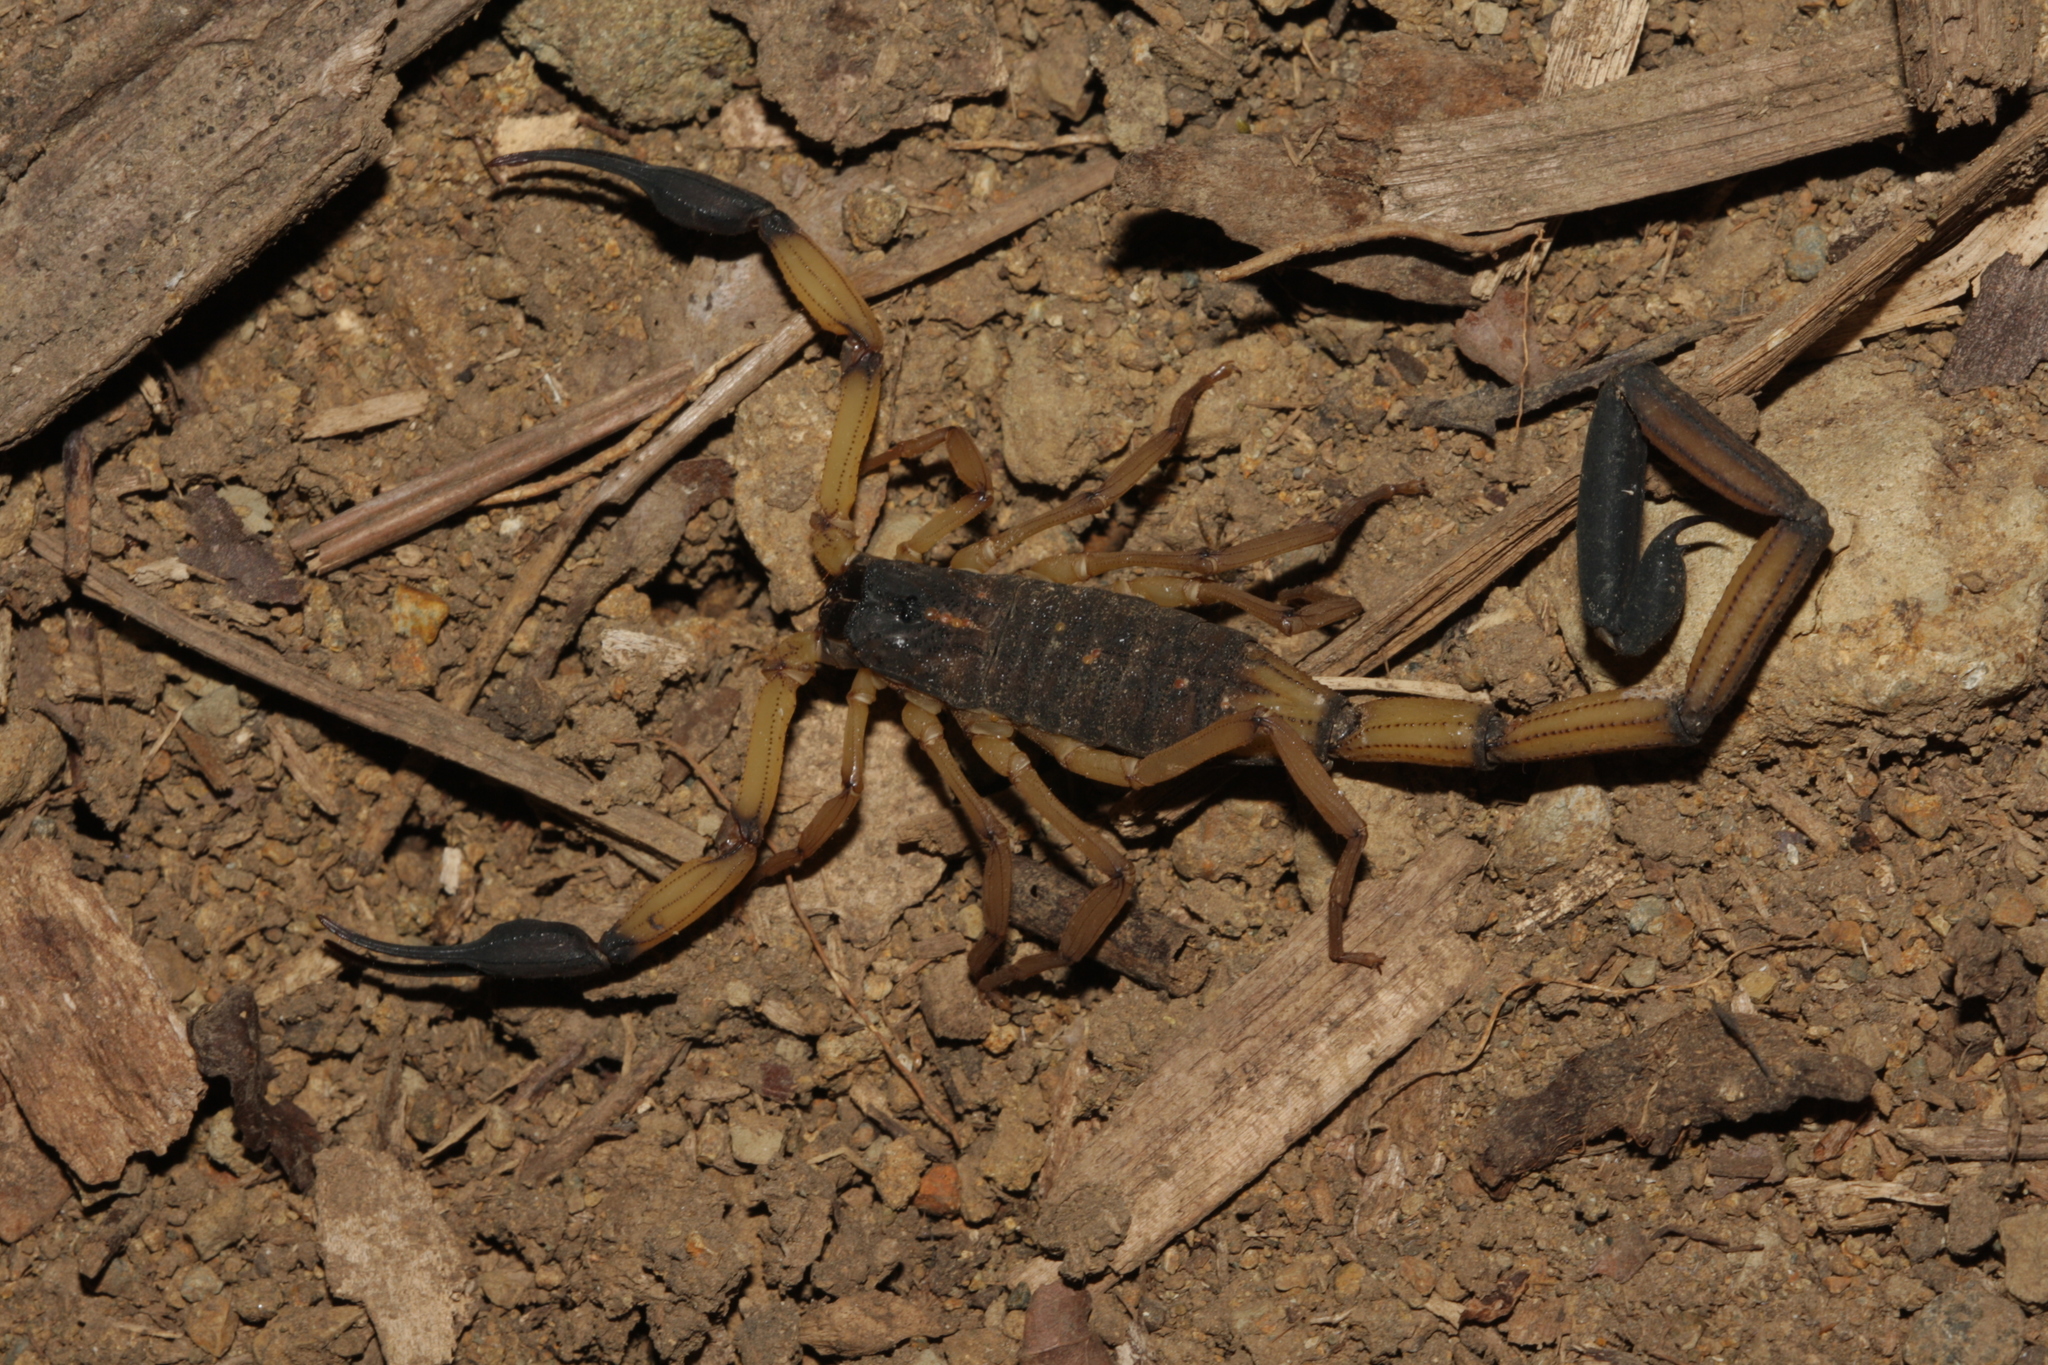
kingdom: Animalia
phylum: Arthropoda
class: Arachnida
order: Scorpiones
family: Buthidae
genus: Centruroides
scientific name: Centruroides bicolor
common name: Scorpions
